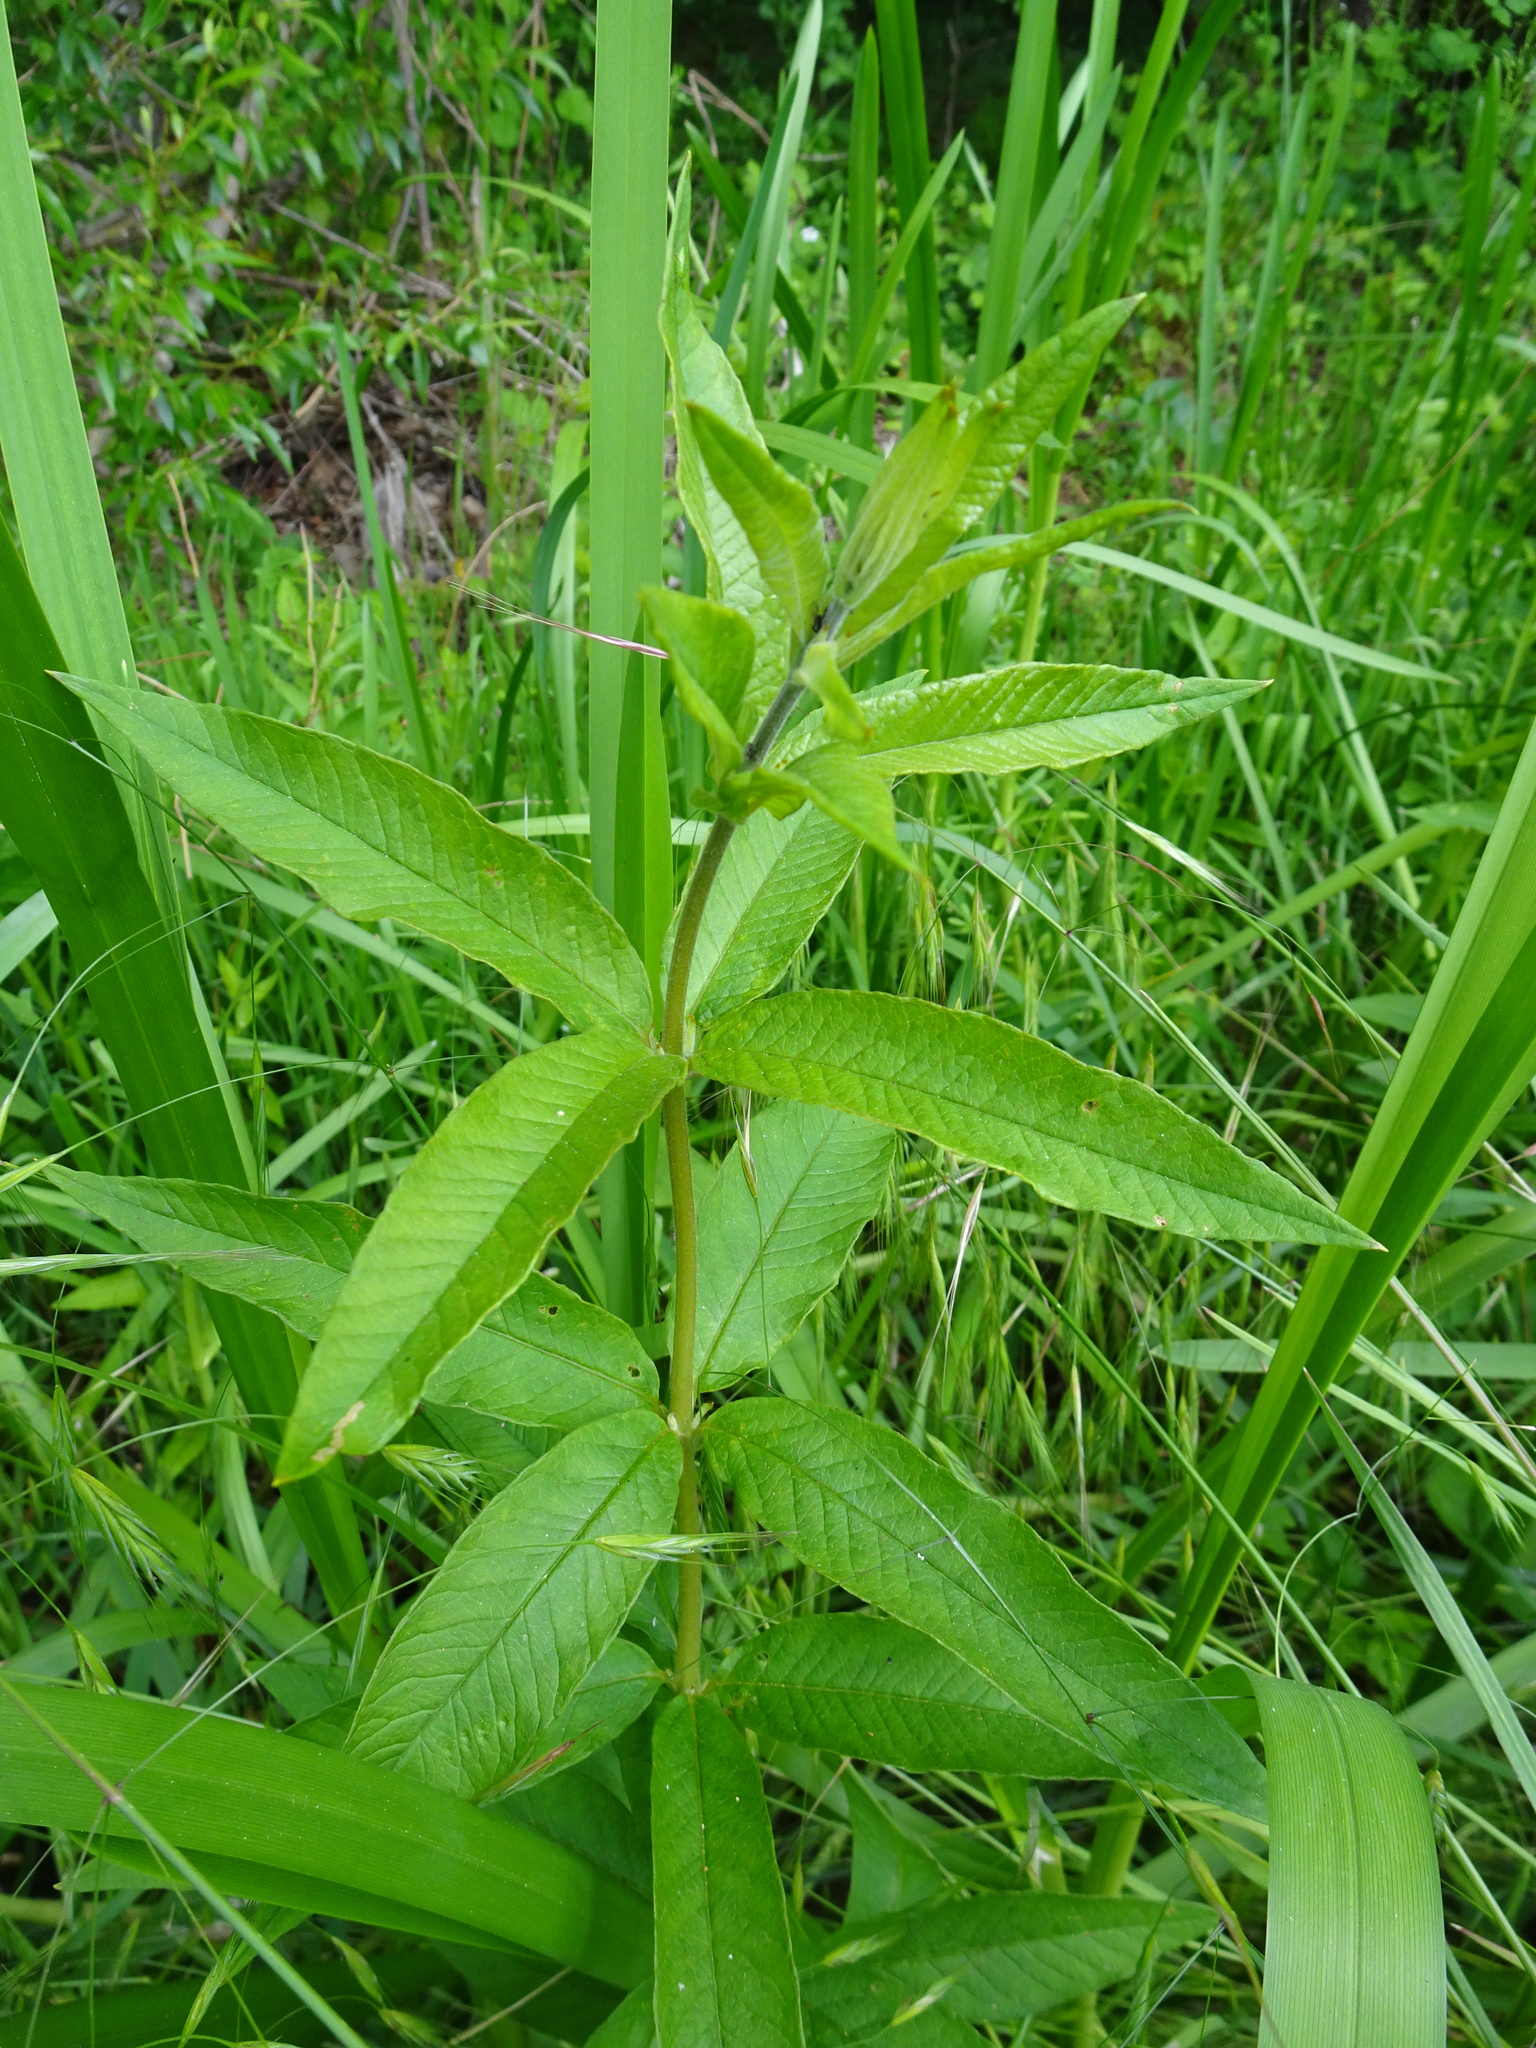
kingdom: Plantae
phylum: Tracheophyta
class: Magnoliopsida
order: Ericales
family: Primulaceae
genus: Lysimachia
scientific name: Lysimachia vulgaris
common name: Yellow loosestrife
